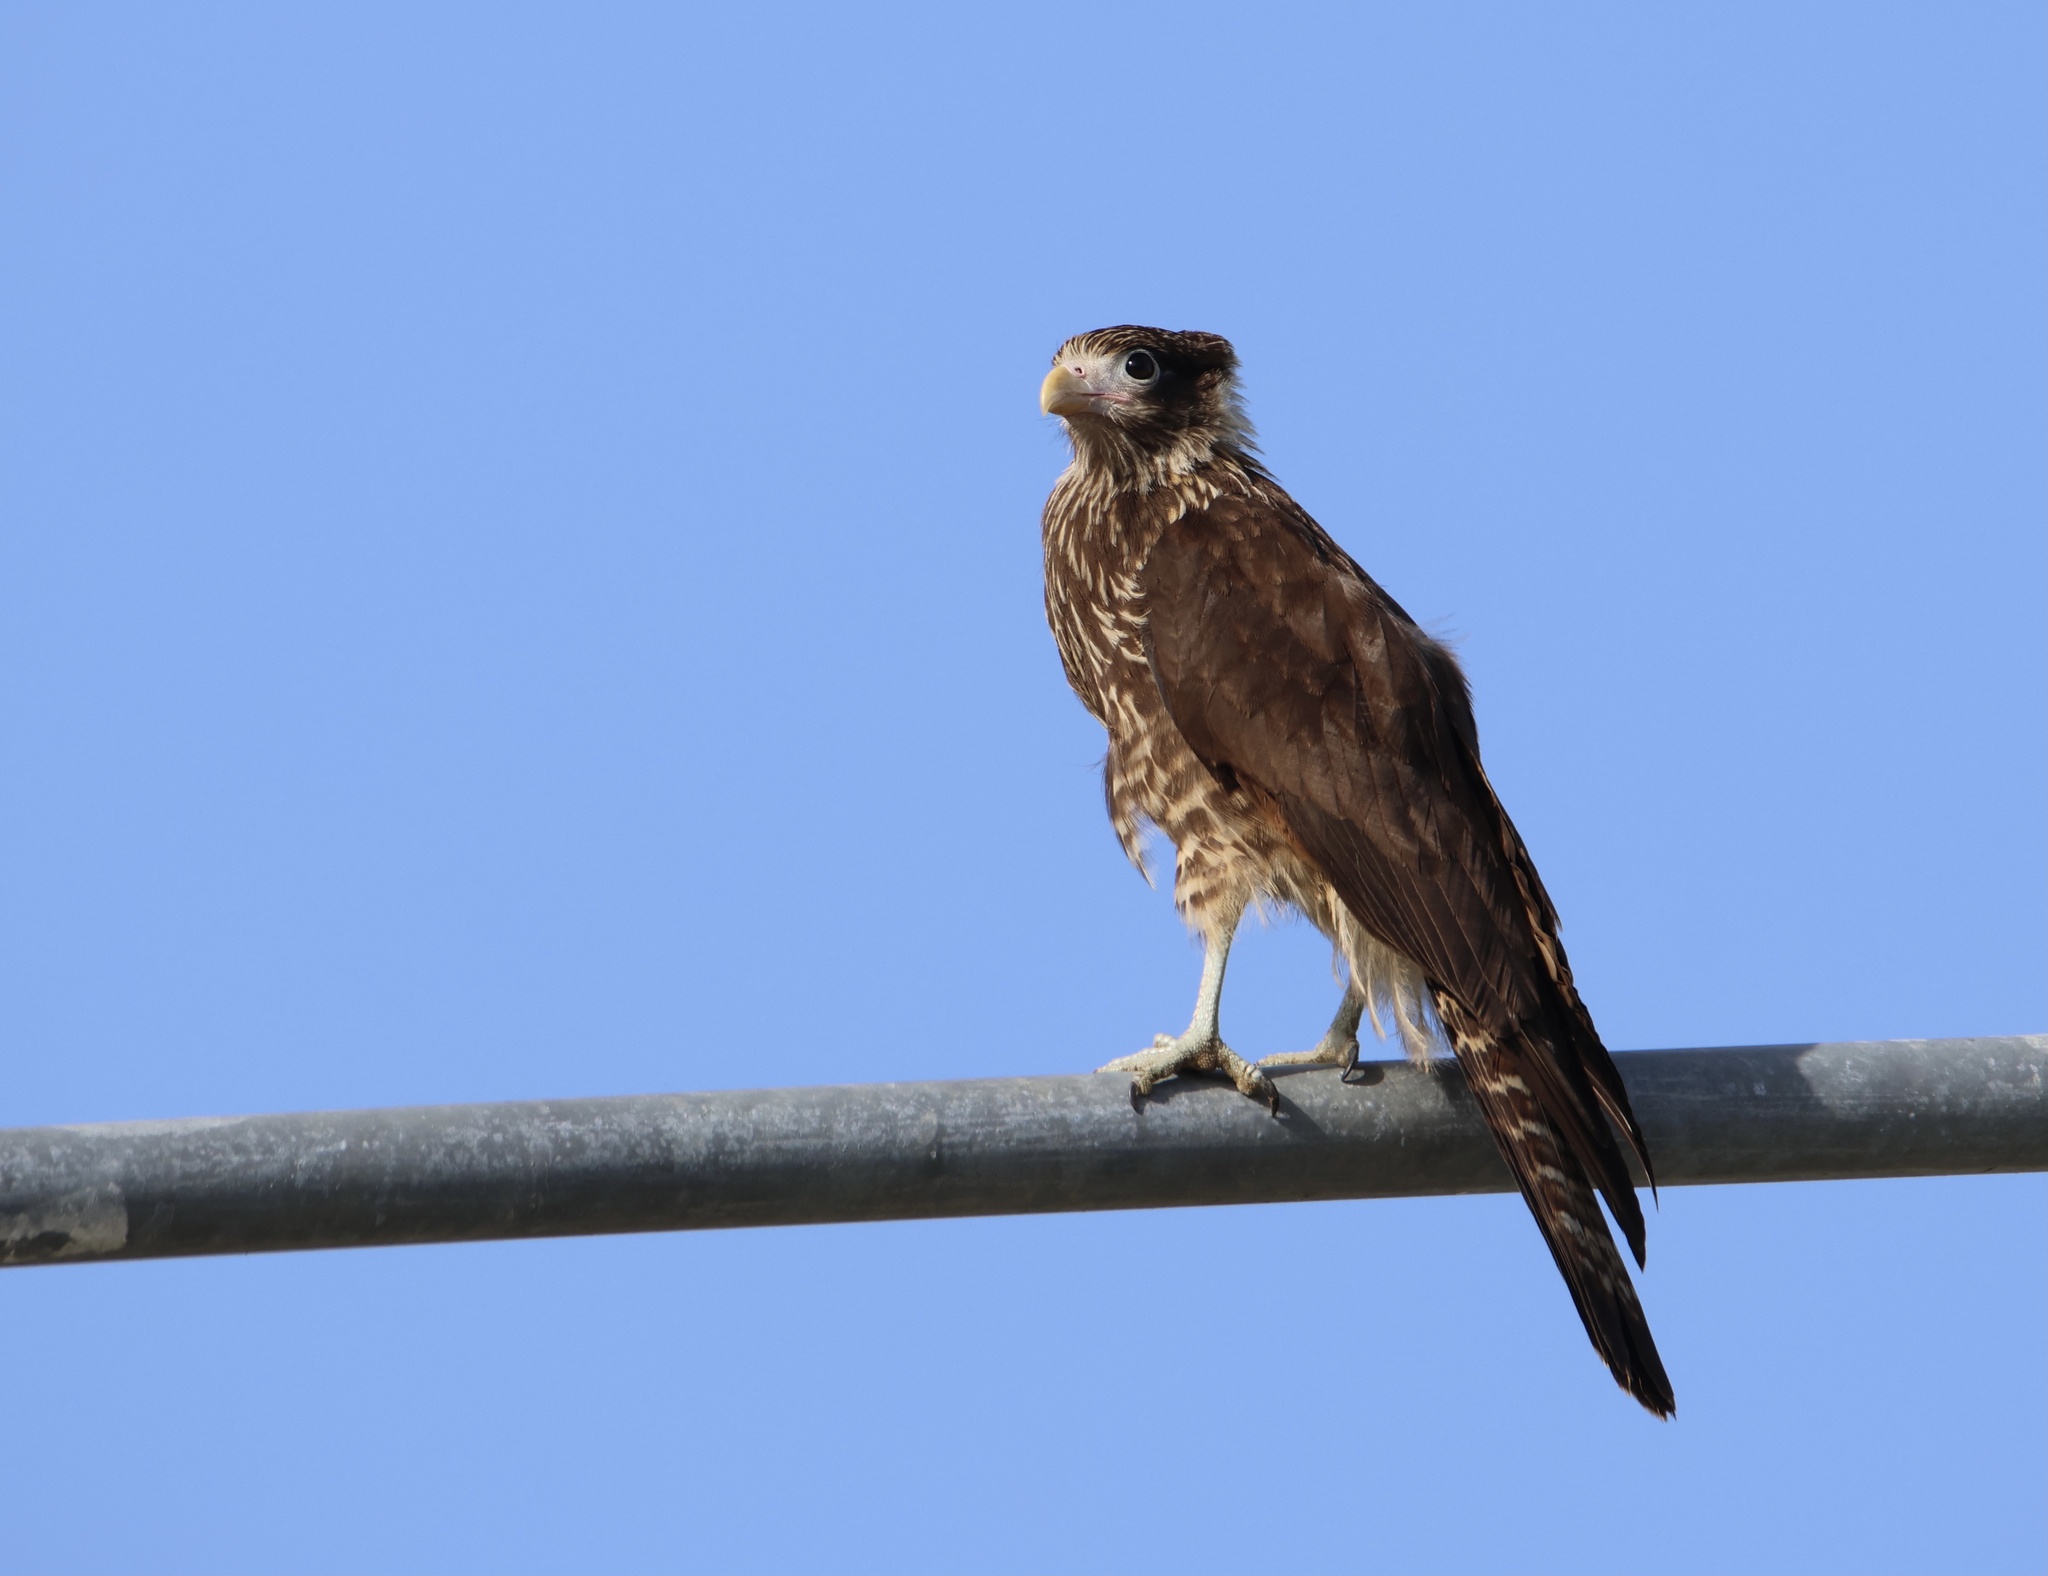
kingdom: Animalia
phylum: Chordata
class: Aves
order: Falconiformes
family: Falconidae
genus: Daptrius
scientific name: Daptrius
